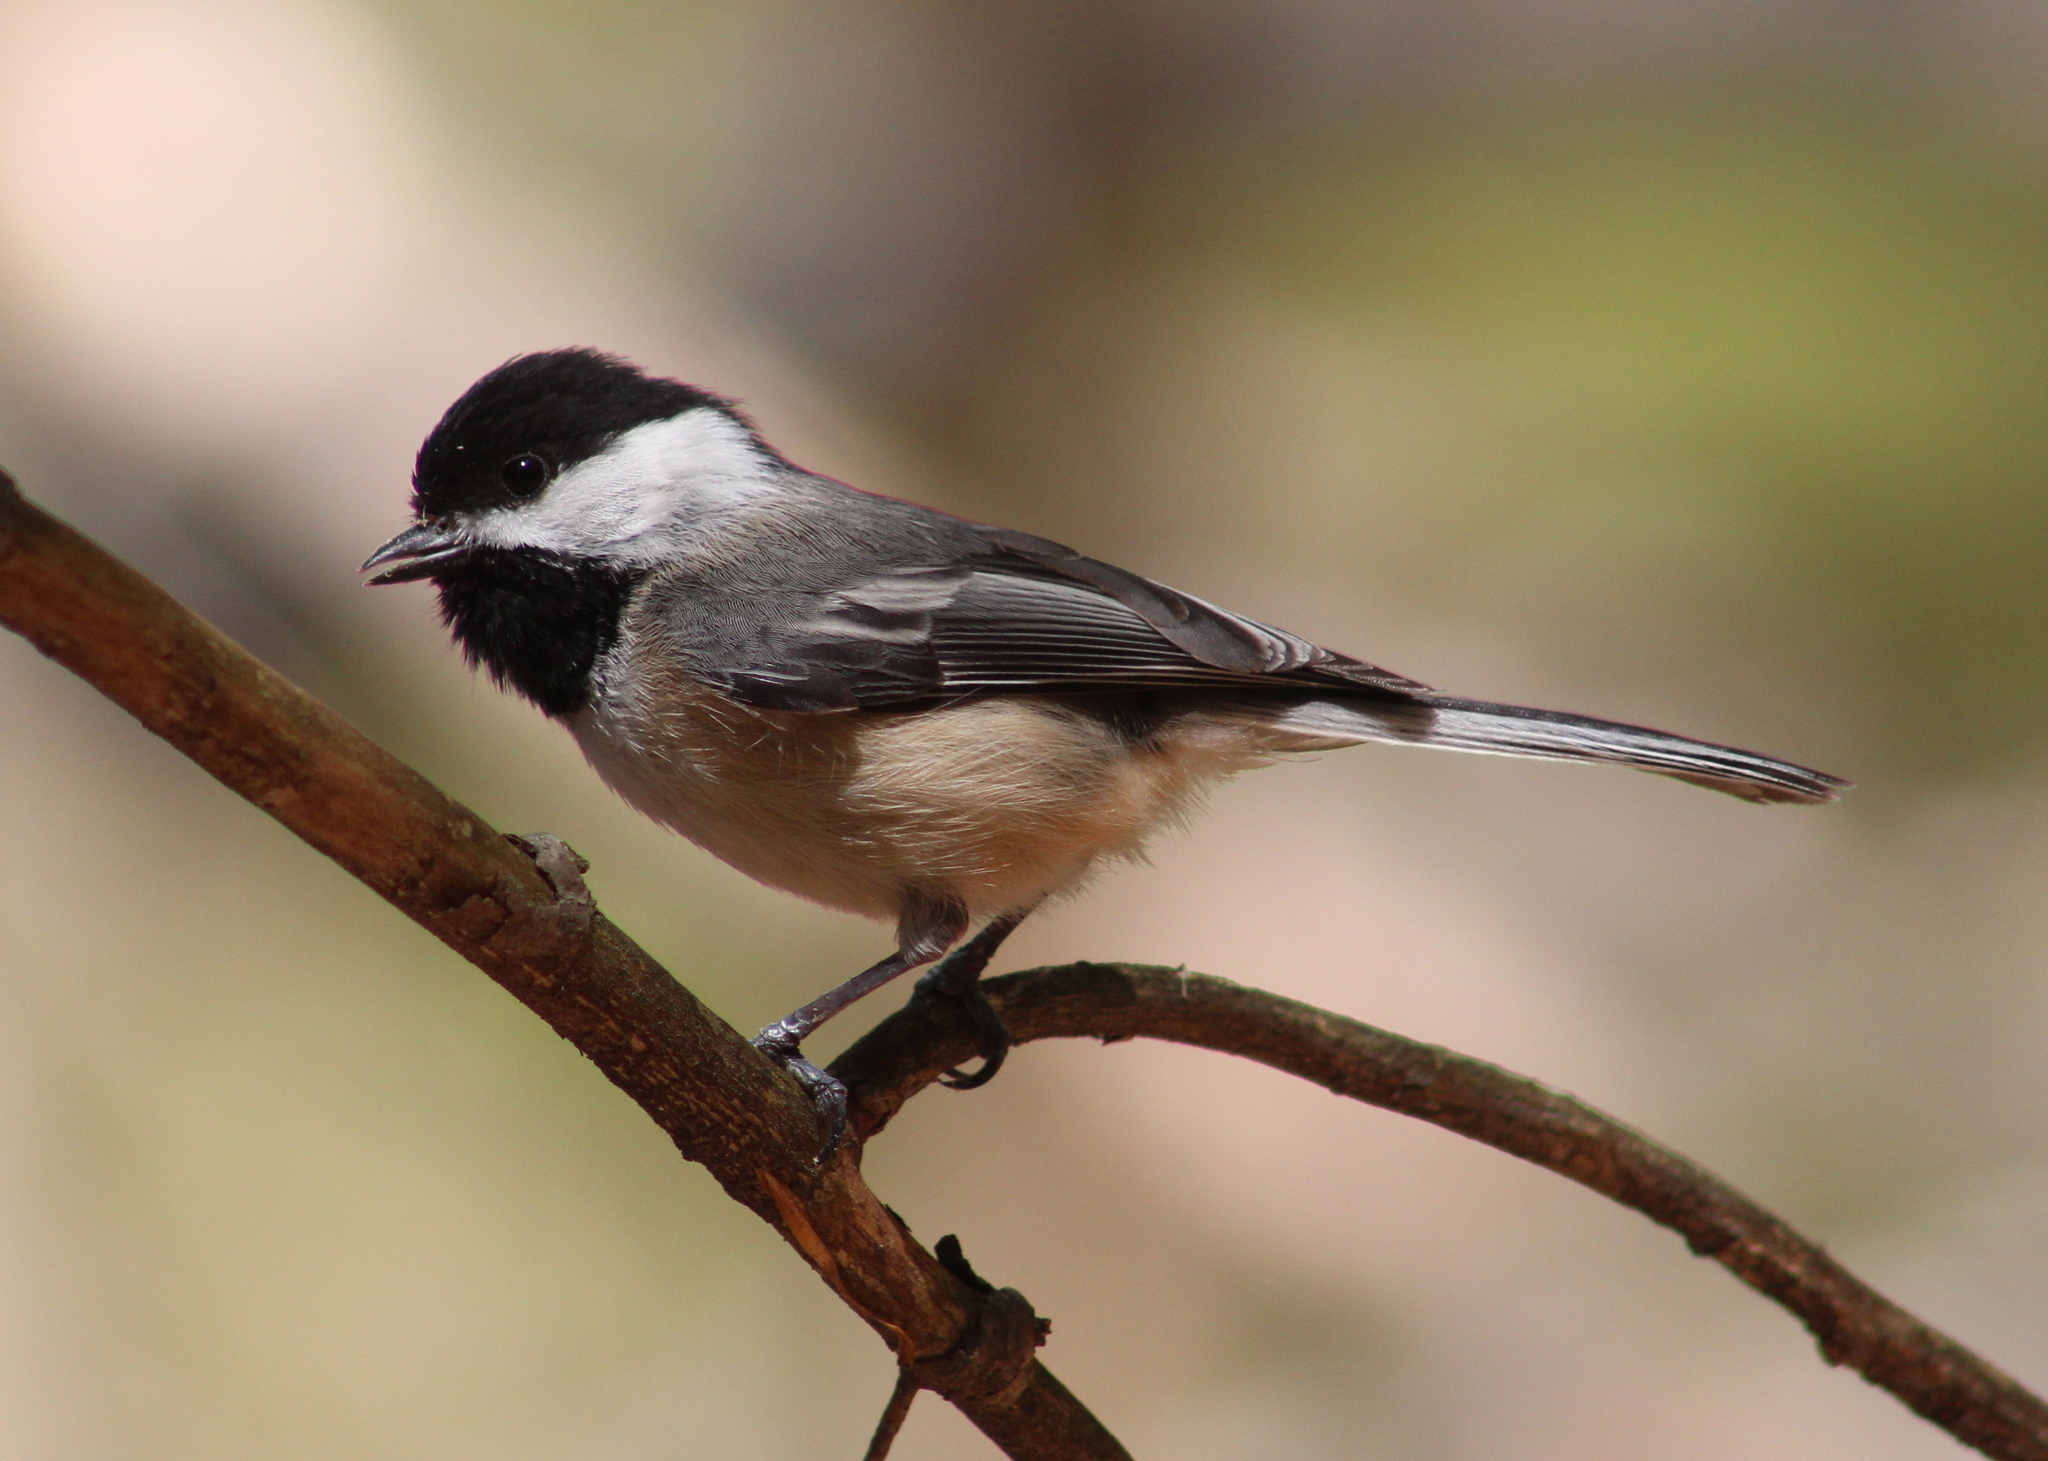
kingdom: Animalia
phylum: Chordata
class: Aves
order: Passeriformes
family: Paridae
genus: Poecile
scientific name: Poecile atricapillus
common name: Black-capped chickadee
